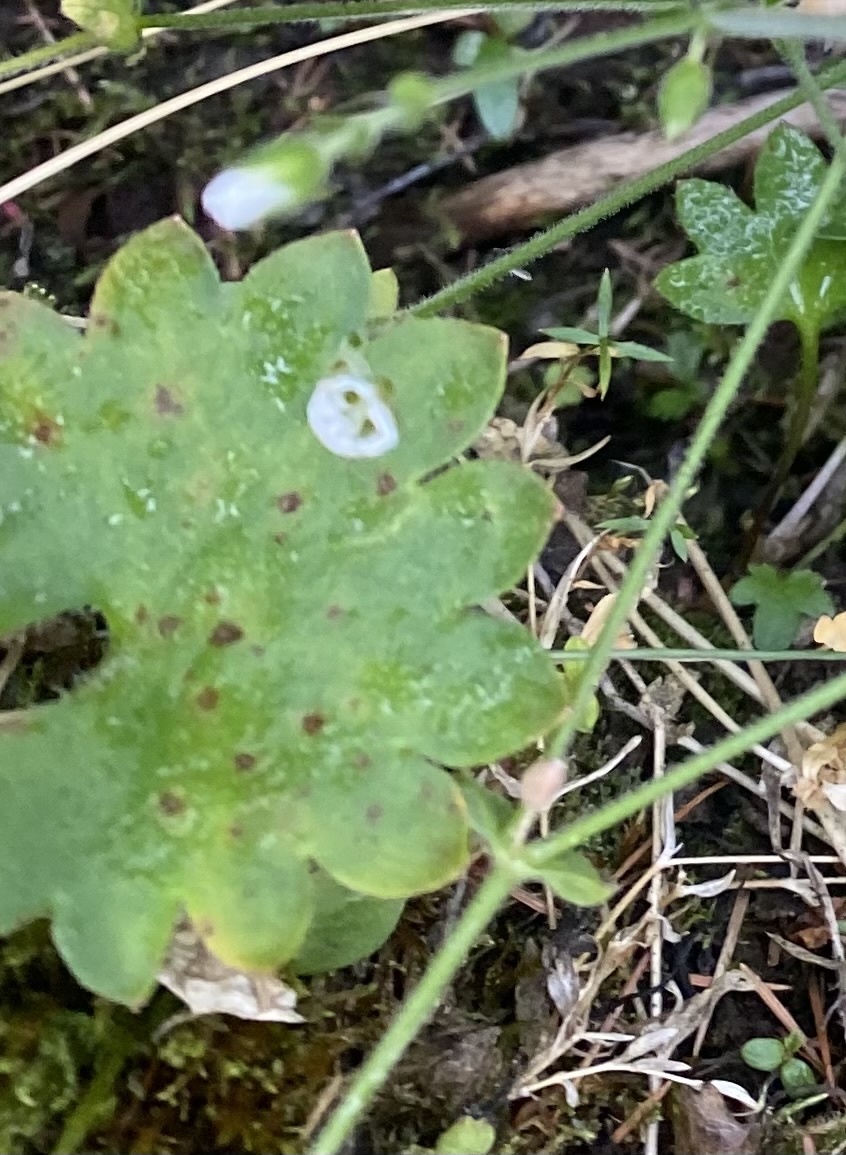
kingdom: Plantae
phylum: Tracheophyta
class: Magnoliopsida
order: Saxifragales
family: Saxifragaceae
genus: Micranthes
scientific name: Micranthes nelsoniana
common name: Nelson's saxifrage
